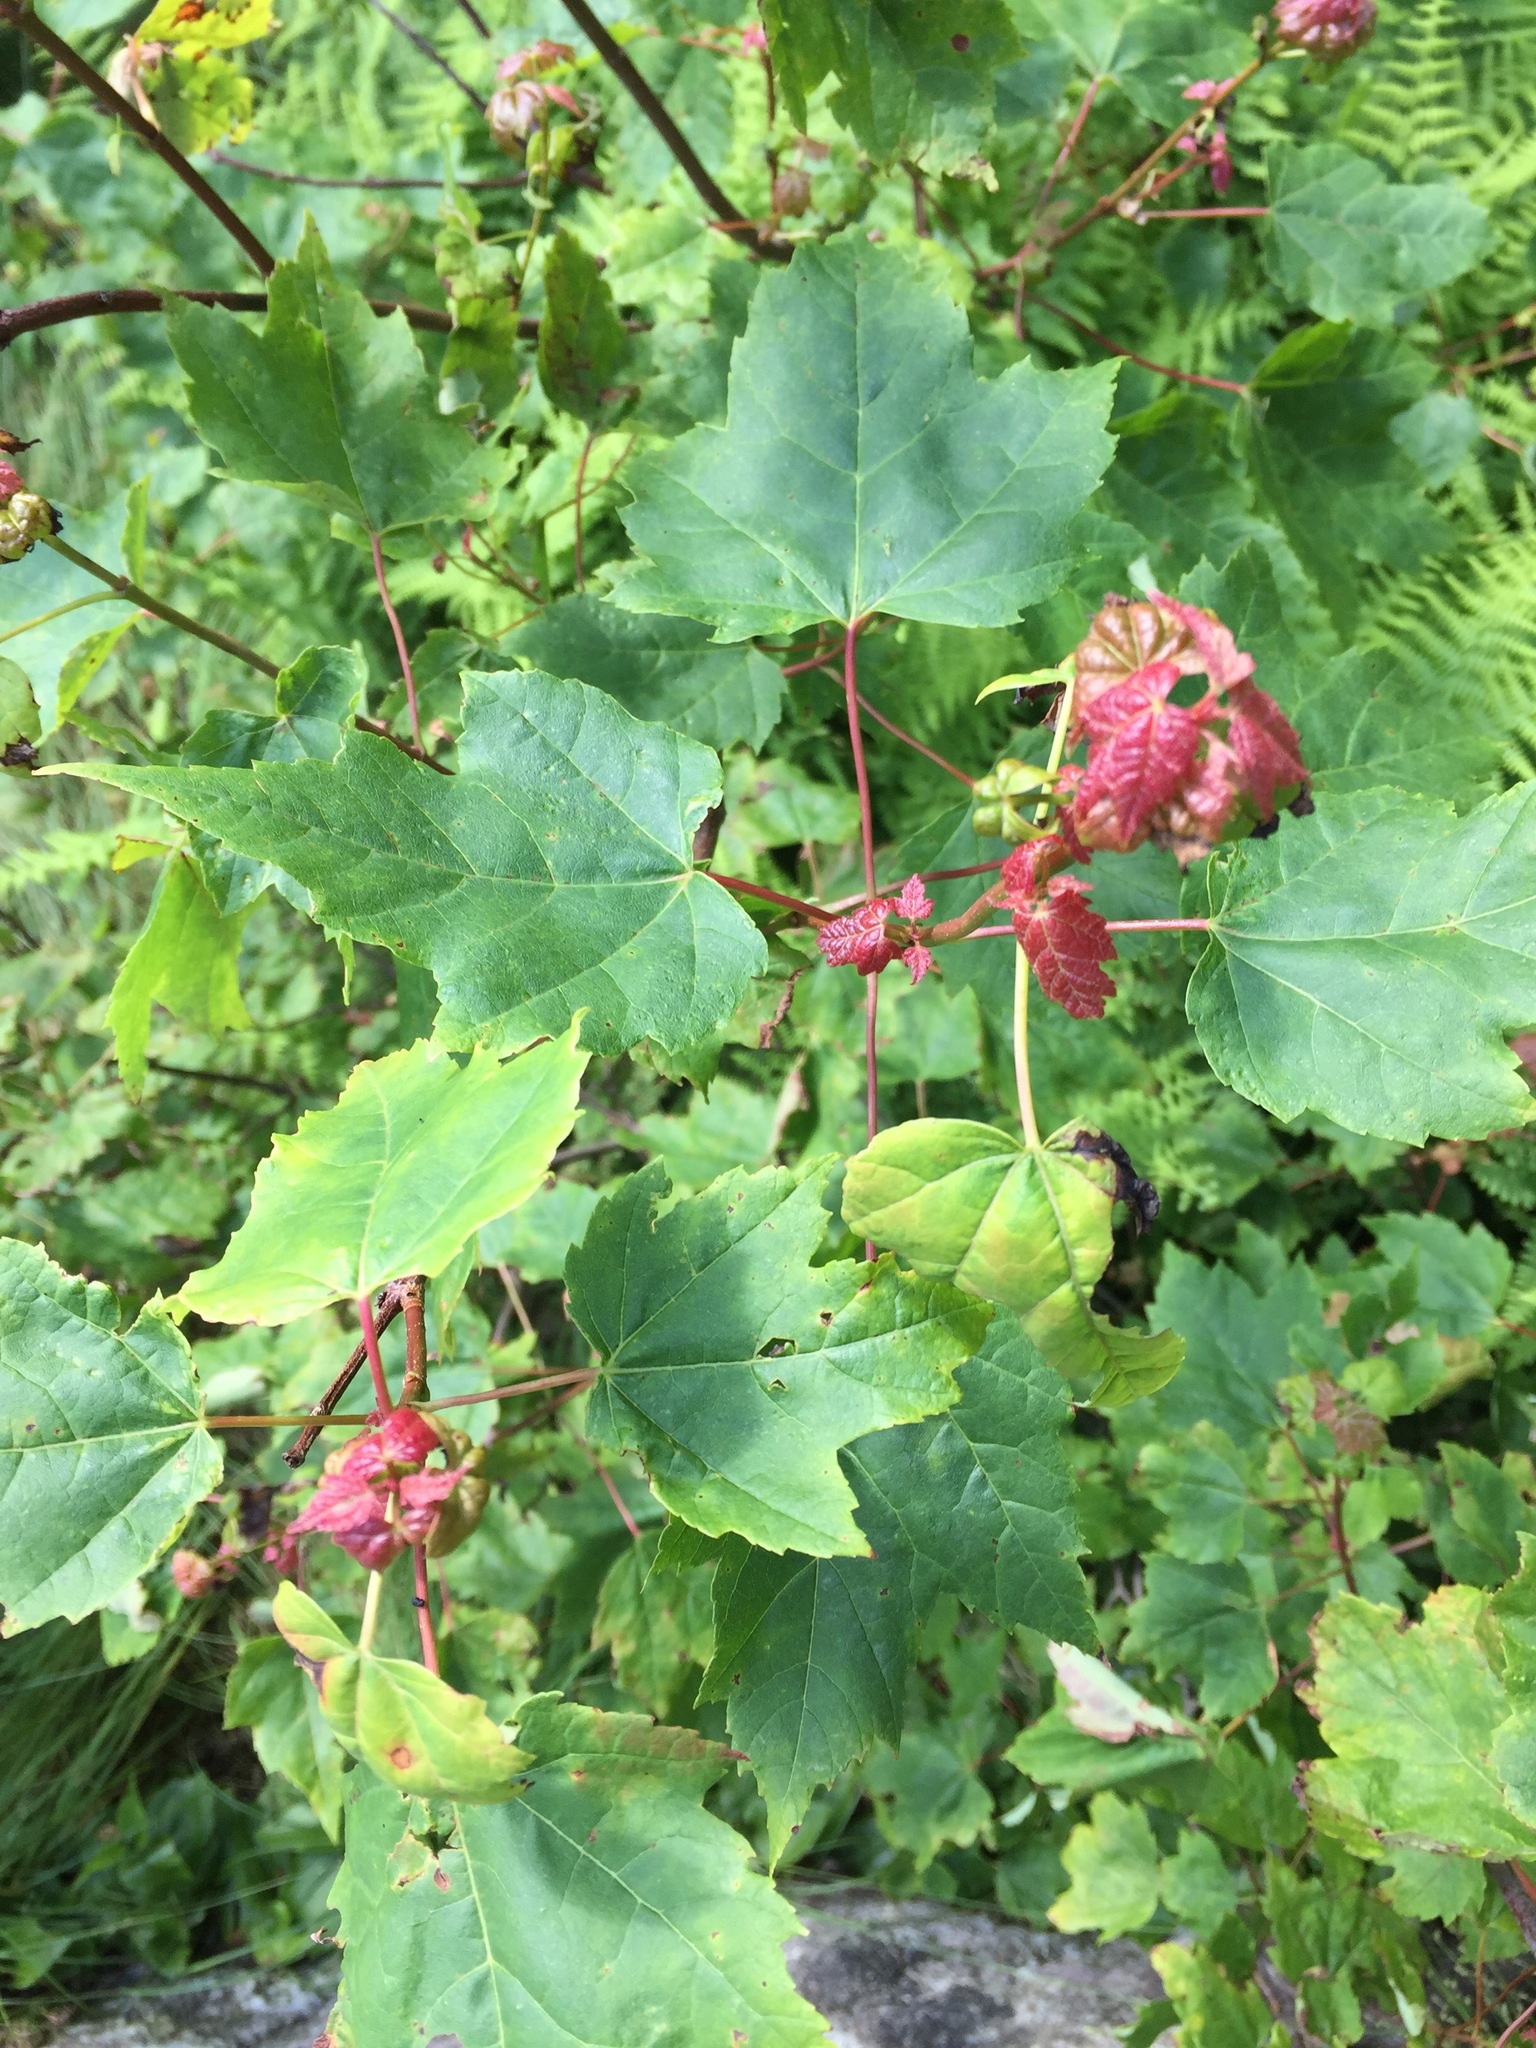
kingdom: Plantae
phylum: Tracheophyta
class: Magnoliopsida
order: Sapindales
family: Sapindaceae
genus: Acer
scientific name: Acer rubrum
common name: Red maple
